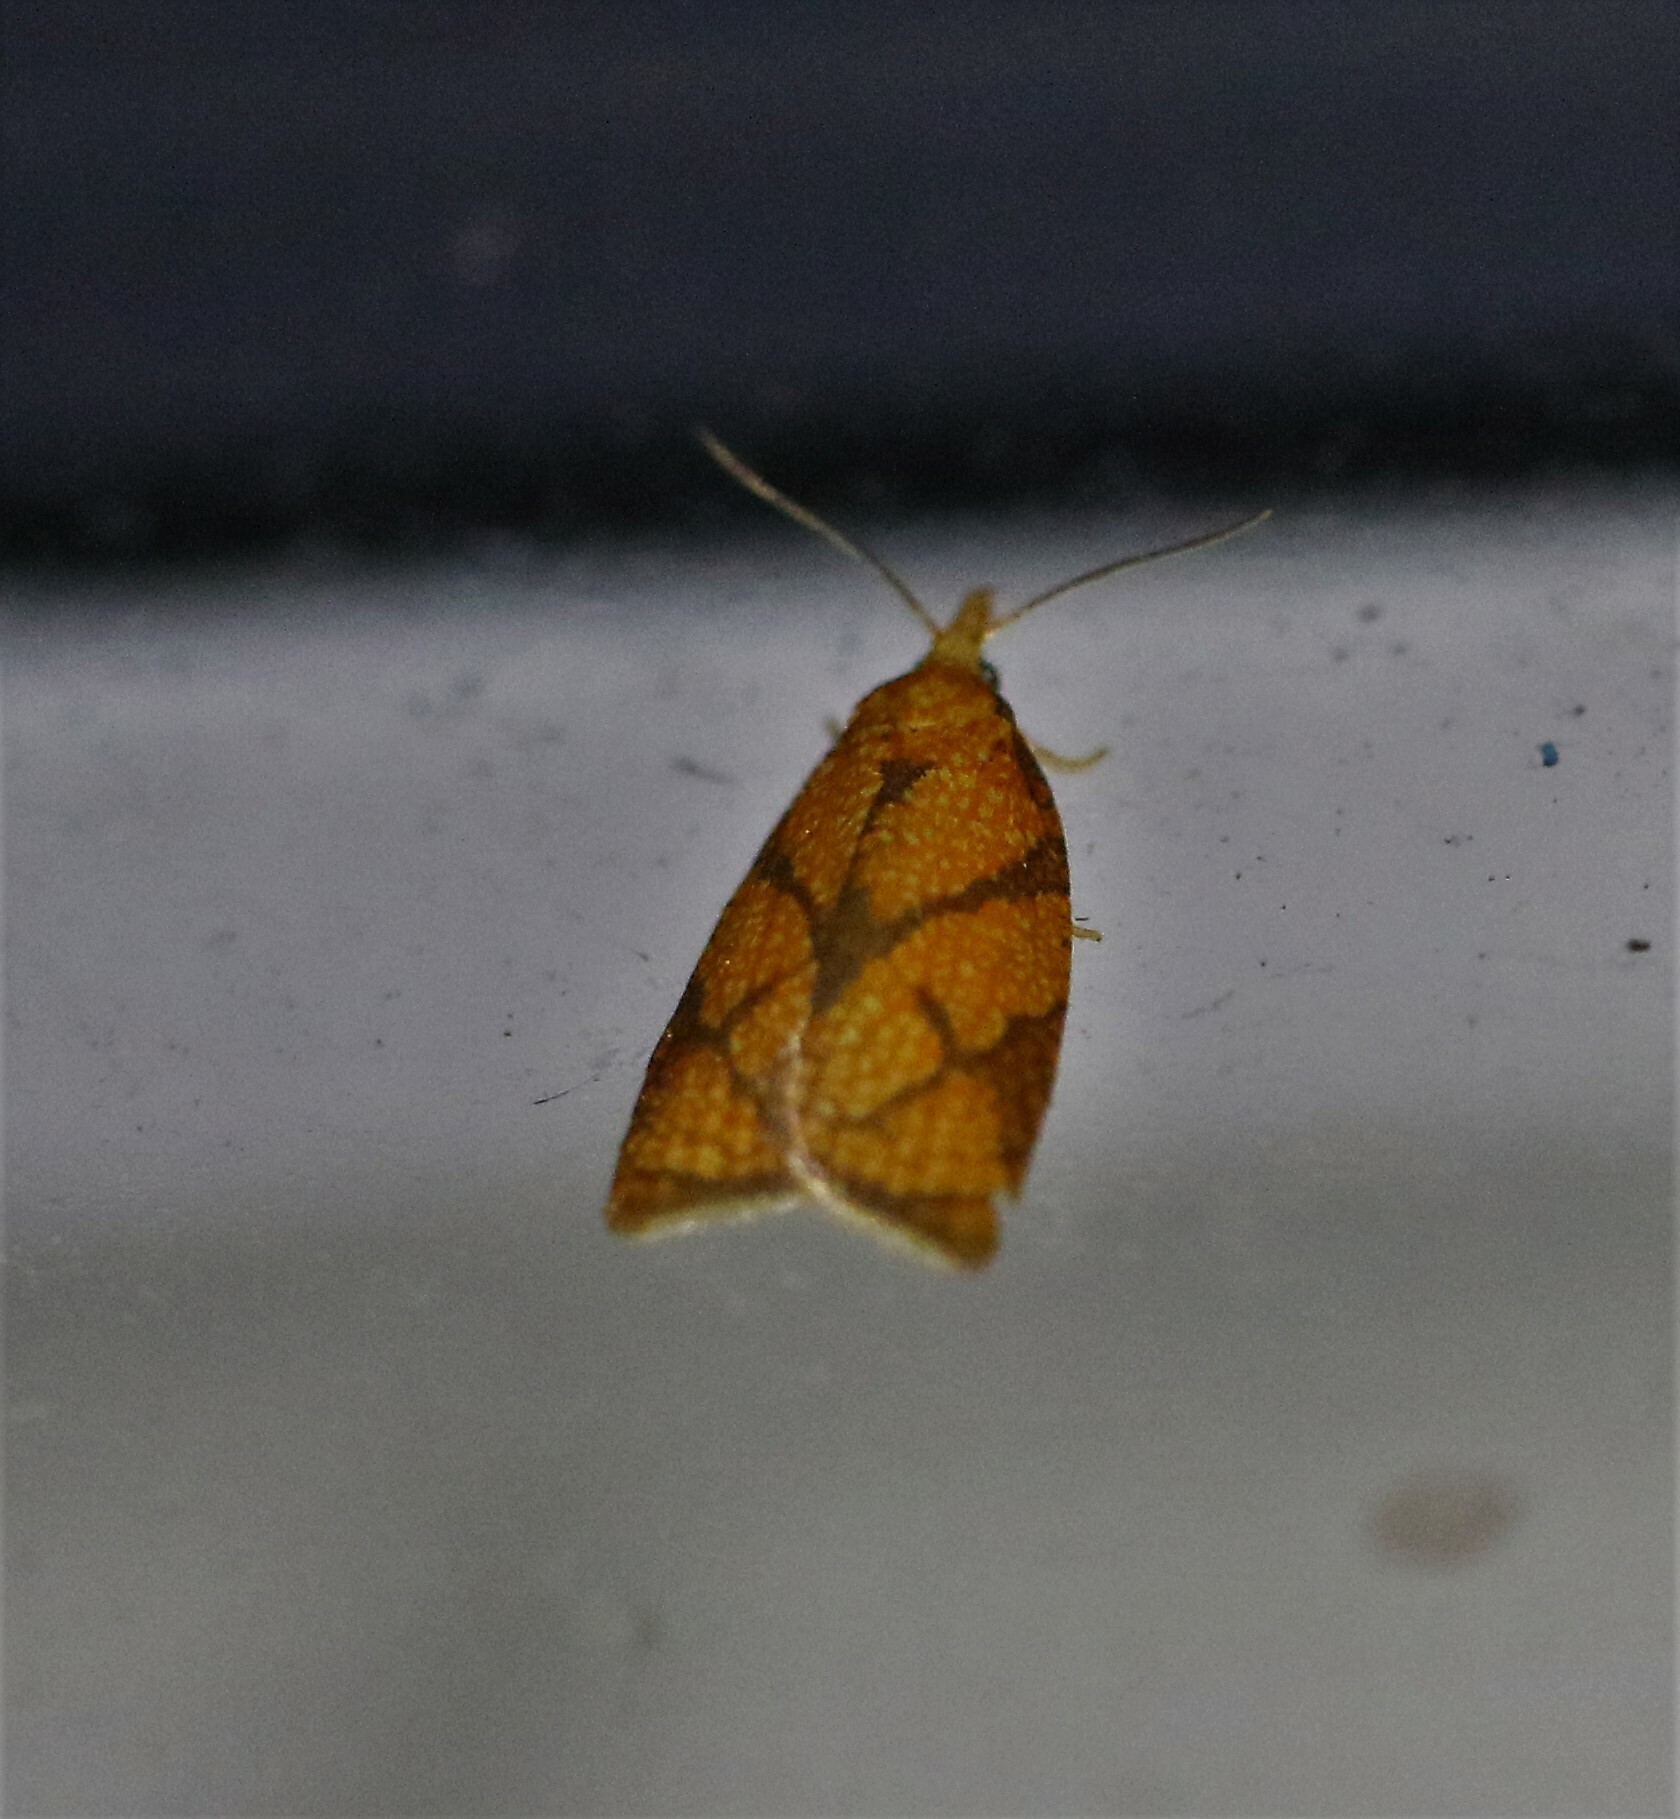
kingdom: Animalia
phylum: Arthropoda
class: Insecta
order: Lepidoptera
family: Tortricidae
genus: Cenopis
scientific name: Cenopis reticulatana
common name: Reticulated fruitworm moth
